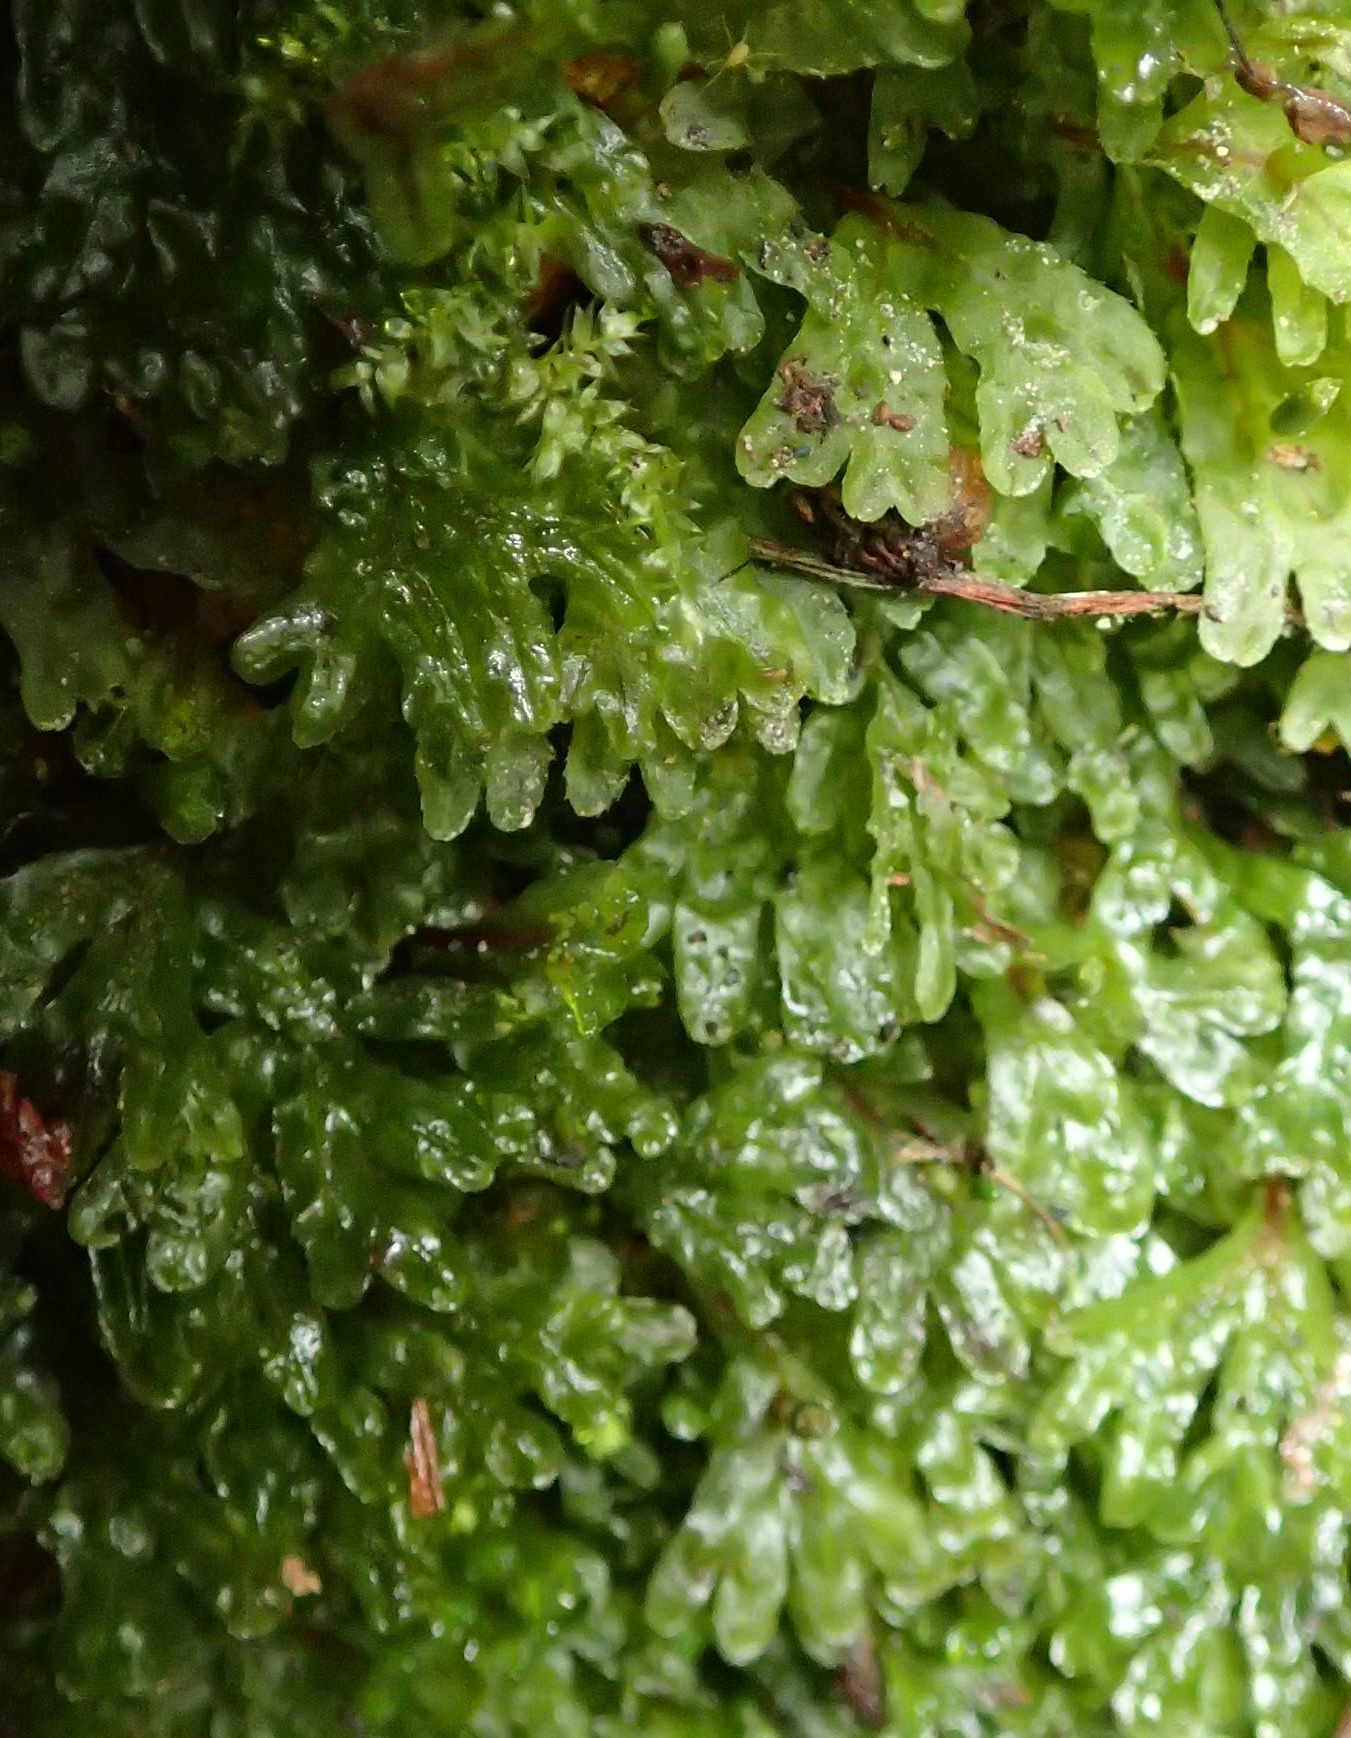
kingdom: Plantae
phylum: Marchantiophyta
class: Jungermanniopsida
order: Pallaviciniales
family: Pallaviciniaceae
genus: Symphyogyna
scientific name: Symphyogyna hymenophyllum
